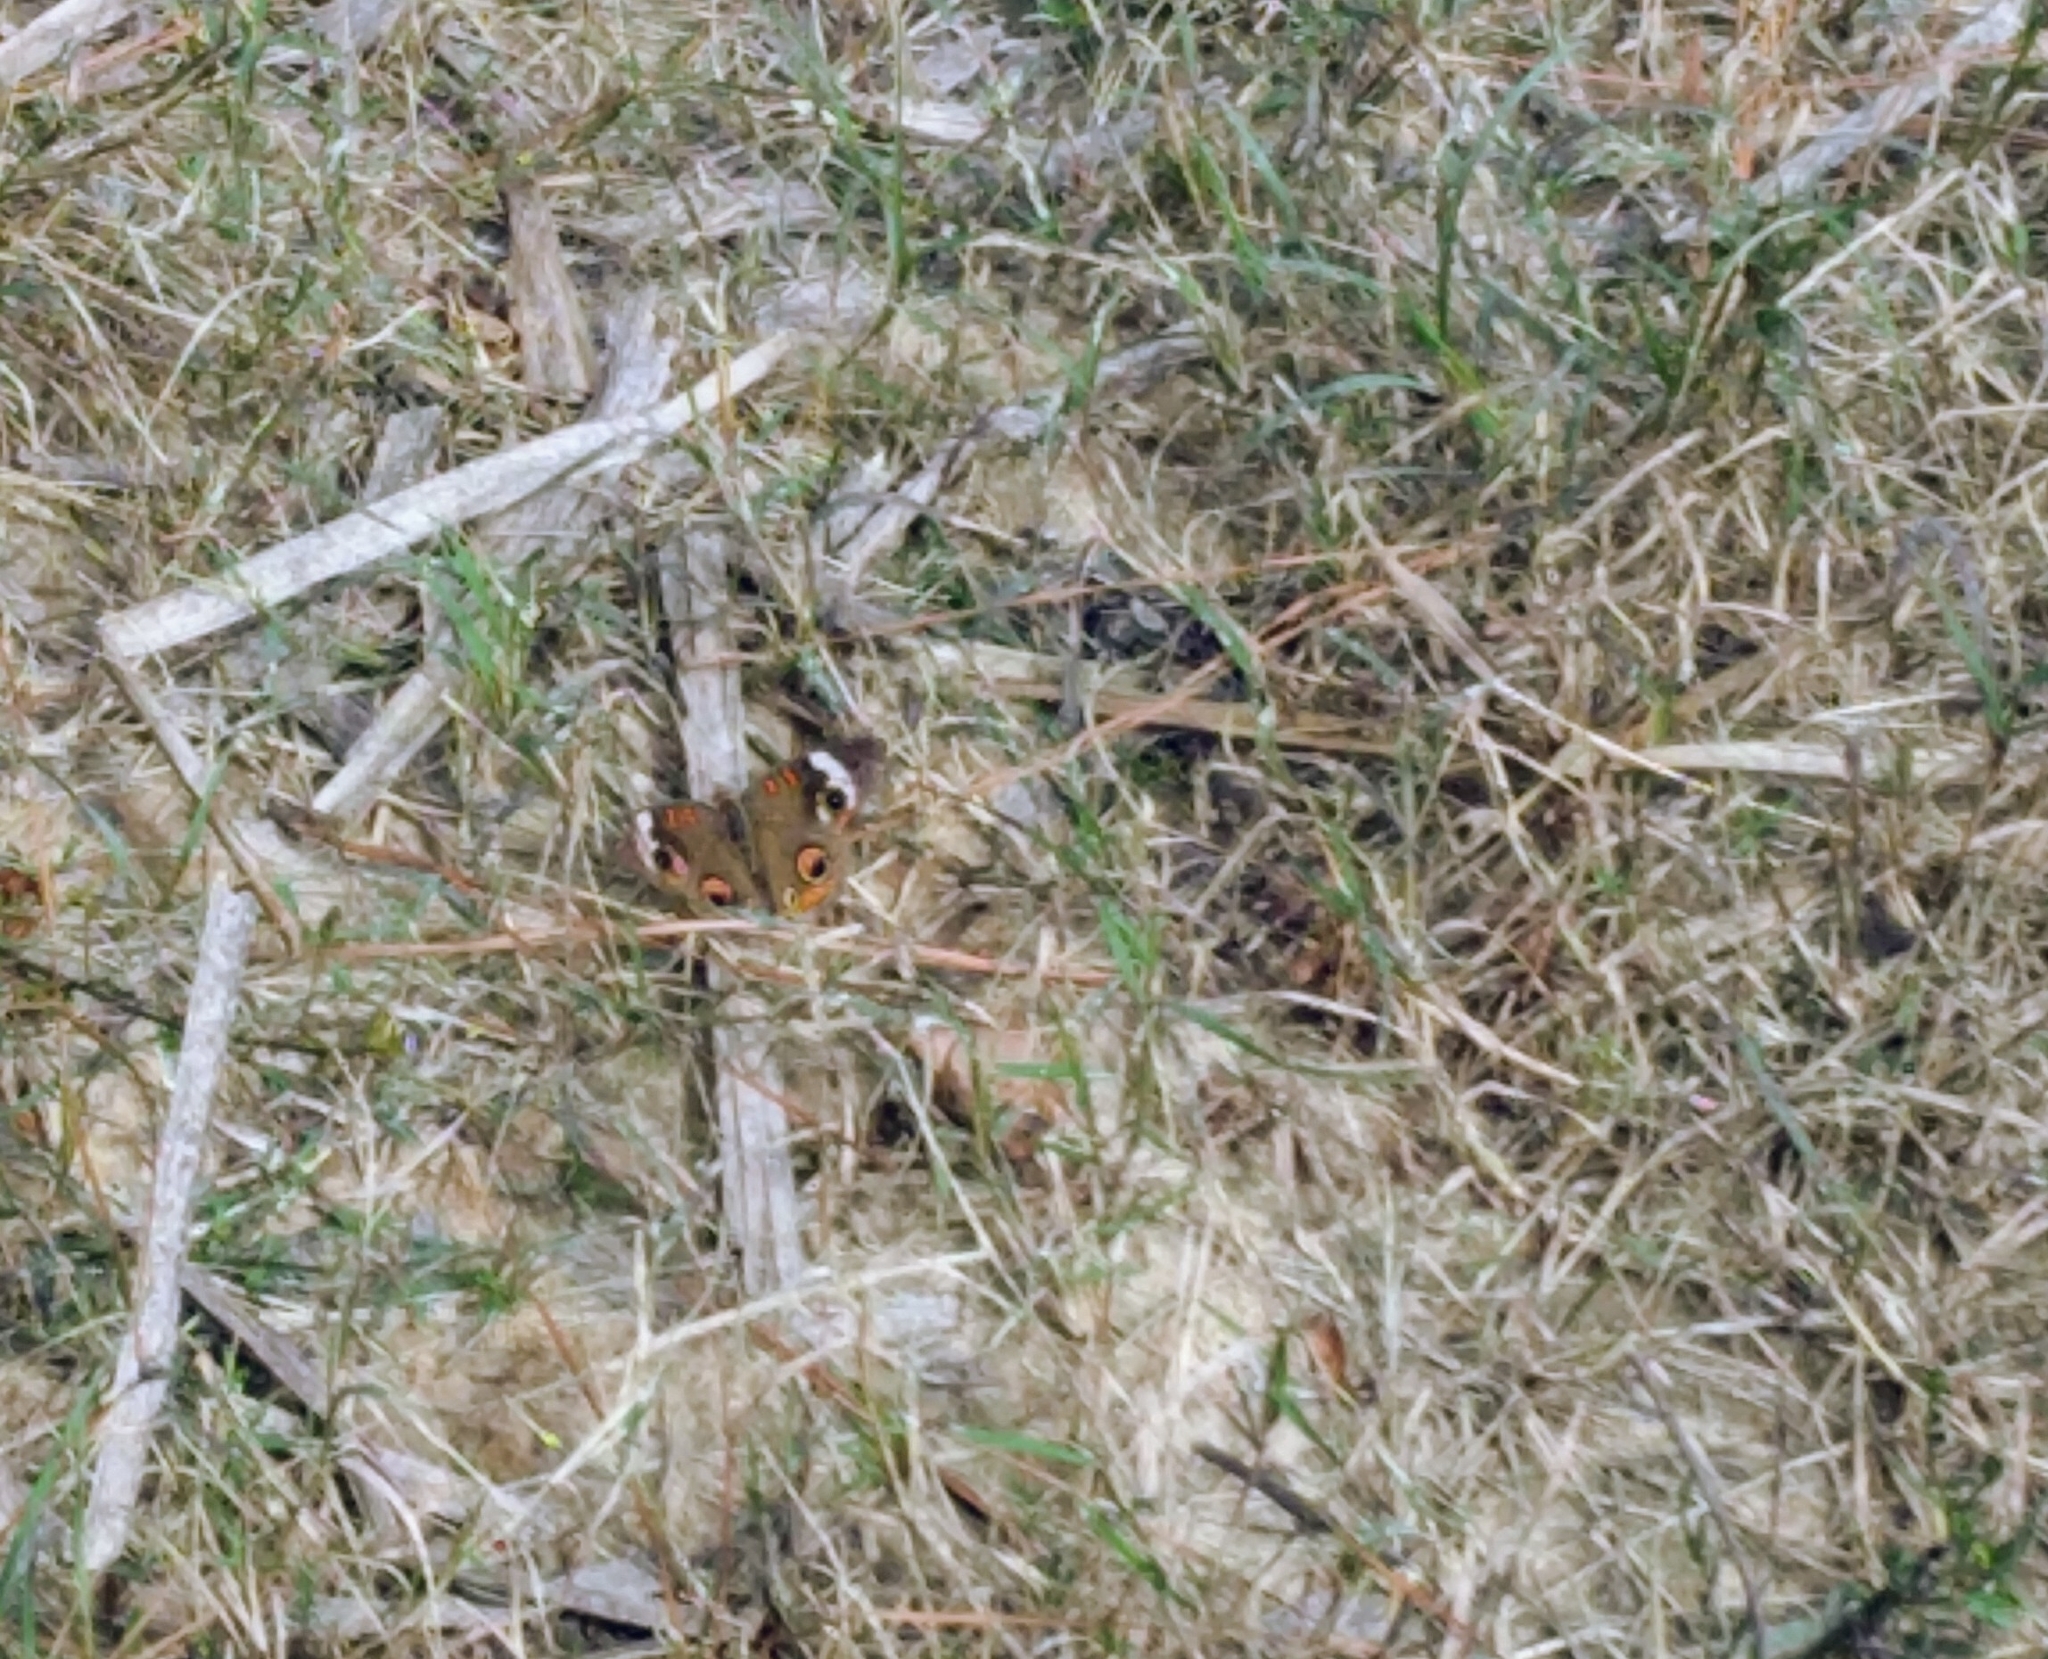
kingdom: Animalia
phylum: Arthropoda
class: Insecta
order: Lepidoptera
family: Nymphalidae
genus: Junonia
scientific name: Junonia coenia
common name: Common buckeye
